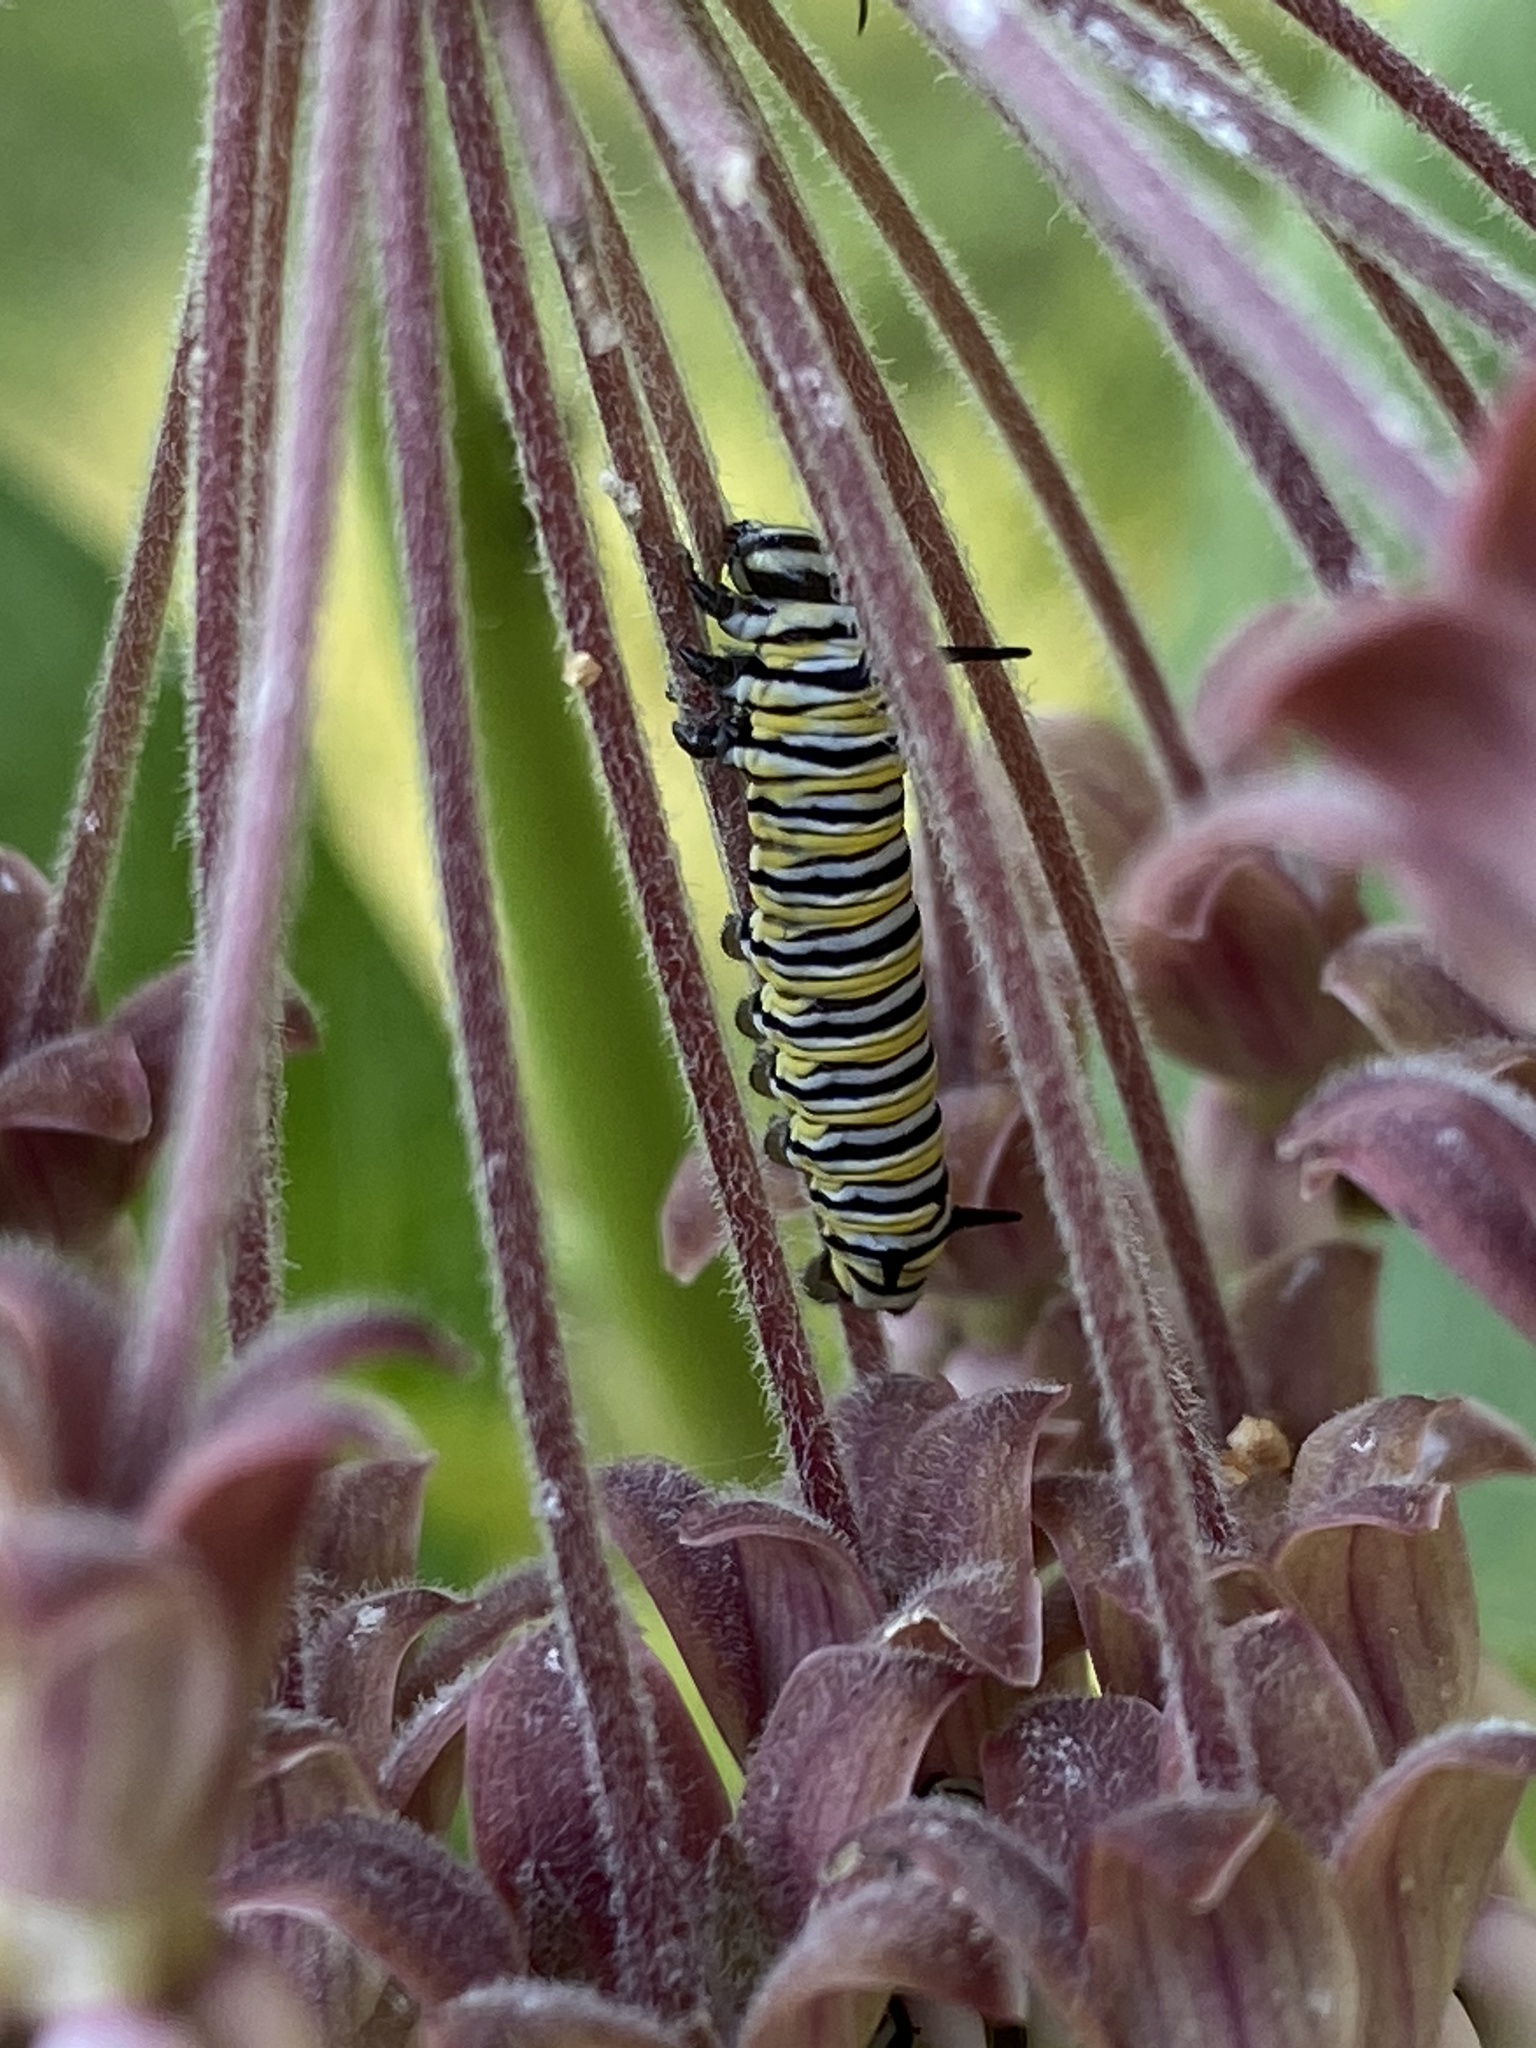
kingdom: Animalia
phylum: Arthropoda
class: Insecta
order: Lepidoptera
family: Nymphalidae
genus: Danaus
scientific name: Danaus plexippus
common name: Monarch
